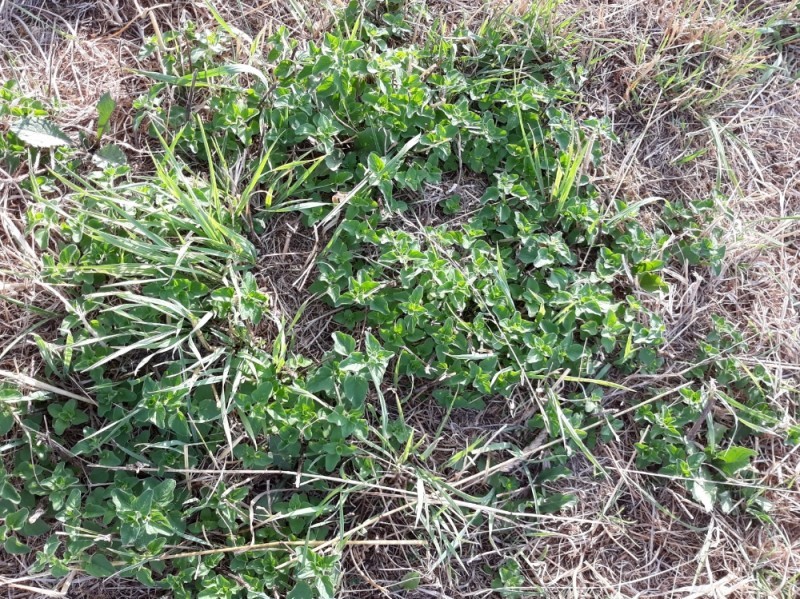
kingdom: Plantae
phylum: Tracheophyta
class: Magnoliopsida
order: Lamiales
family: Lamiaceae
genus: Origanum
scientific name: Origanum vulgare
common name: Wild marjoram
